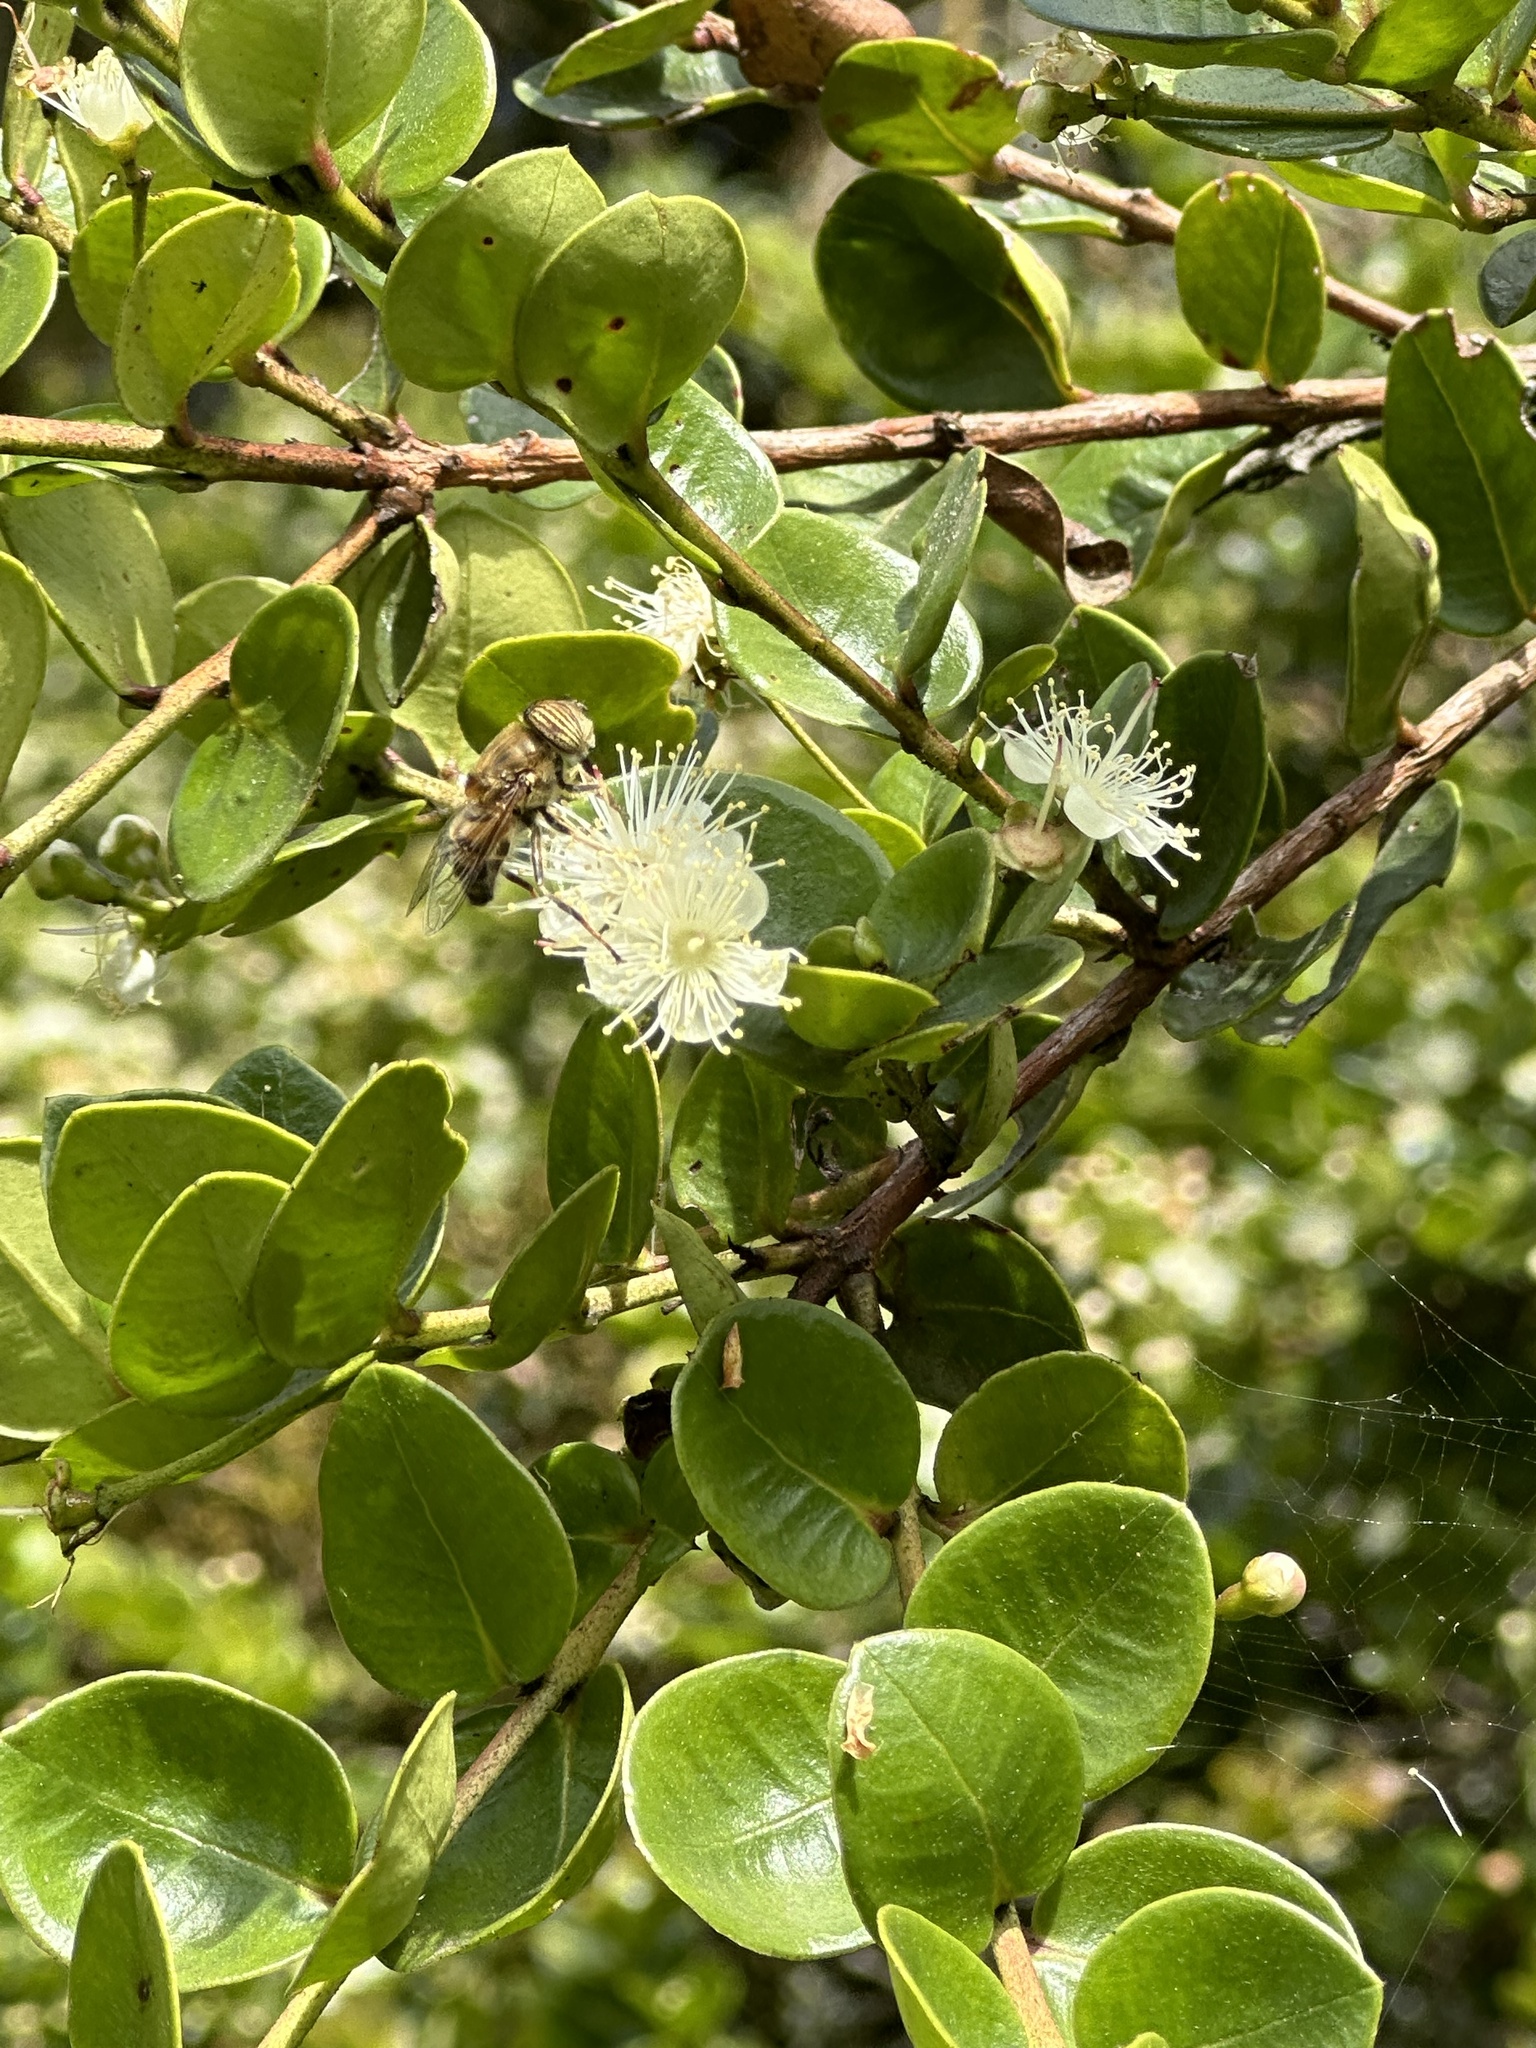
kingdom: Animalia
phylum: Arthropoda
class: Insecta
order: Diptera
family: Syrphidae
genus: Eristalinus
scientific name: Eristalinus taeniops
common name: Syrphid fly
